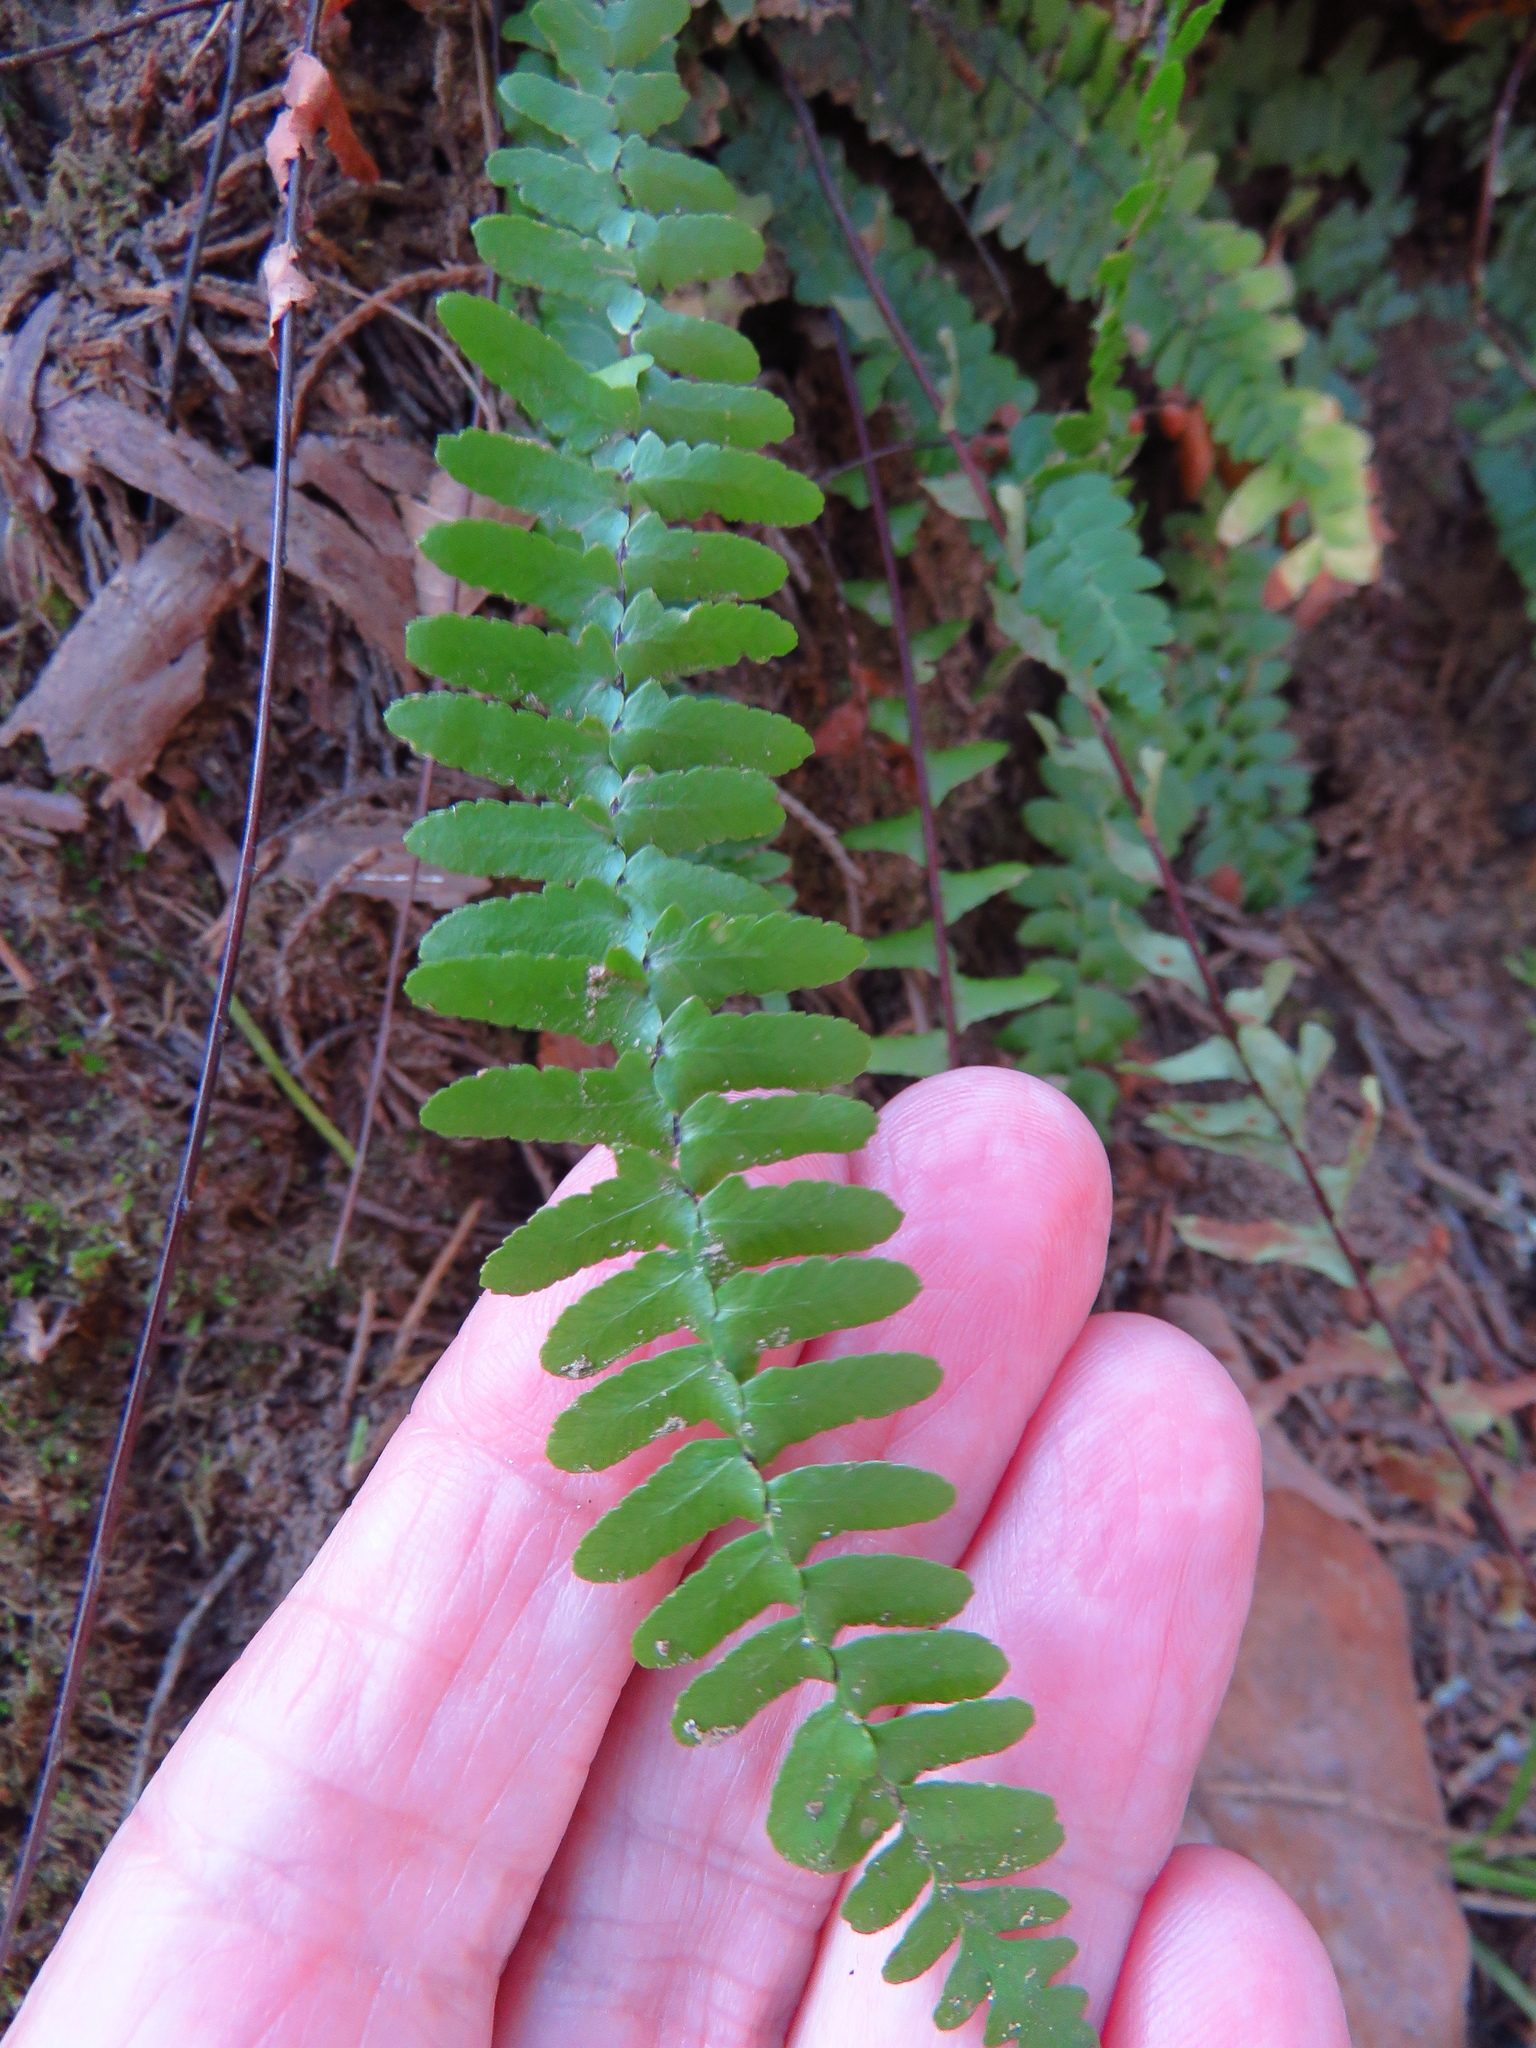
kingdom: Plantae
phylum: Tracheophyta
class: Polypodiopsida
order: Polypodiales
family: Aspleniaceae
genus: Asplenium
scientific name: Asplenium platyneuron
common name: Ebony spleenwort
